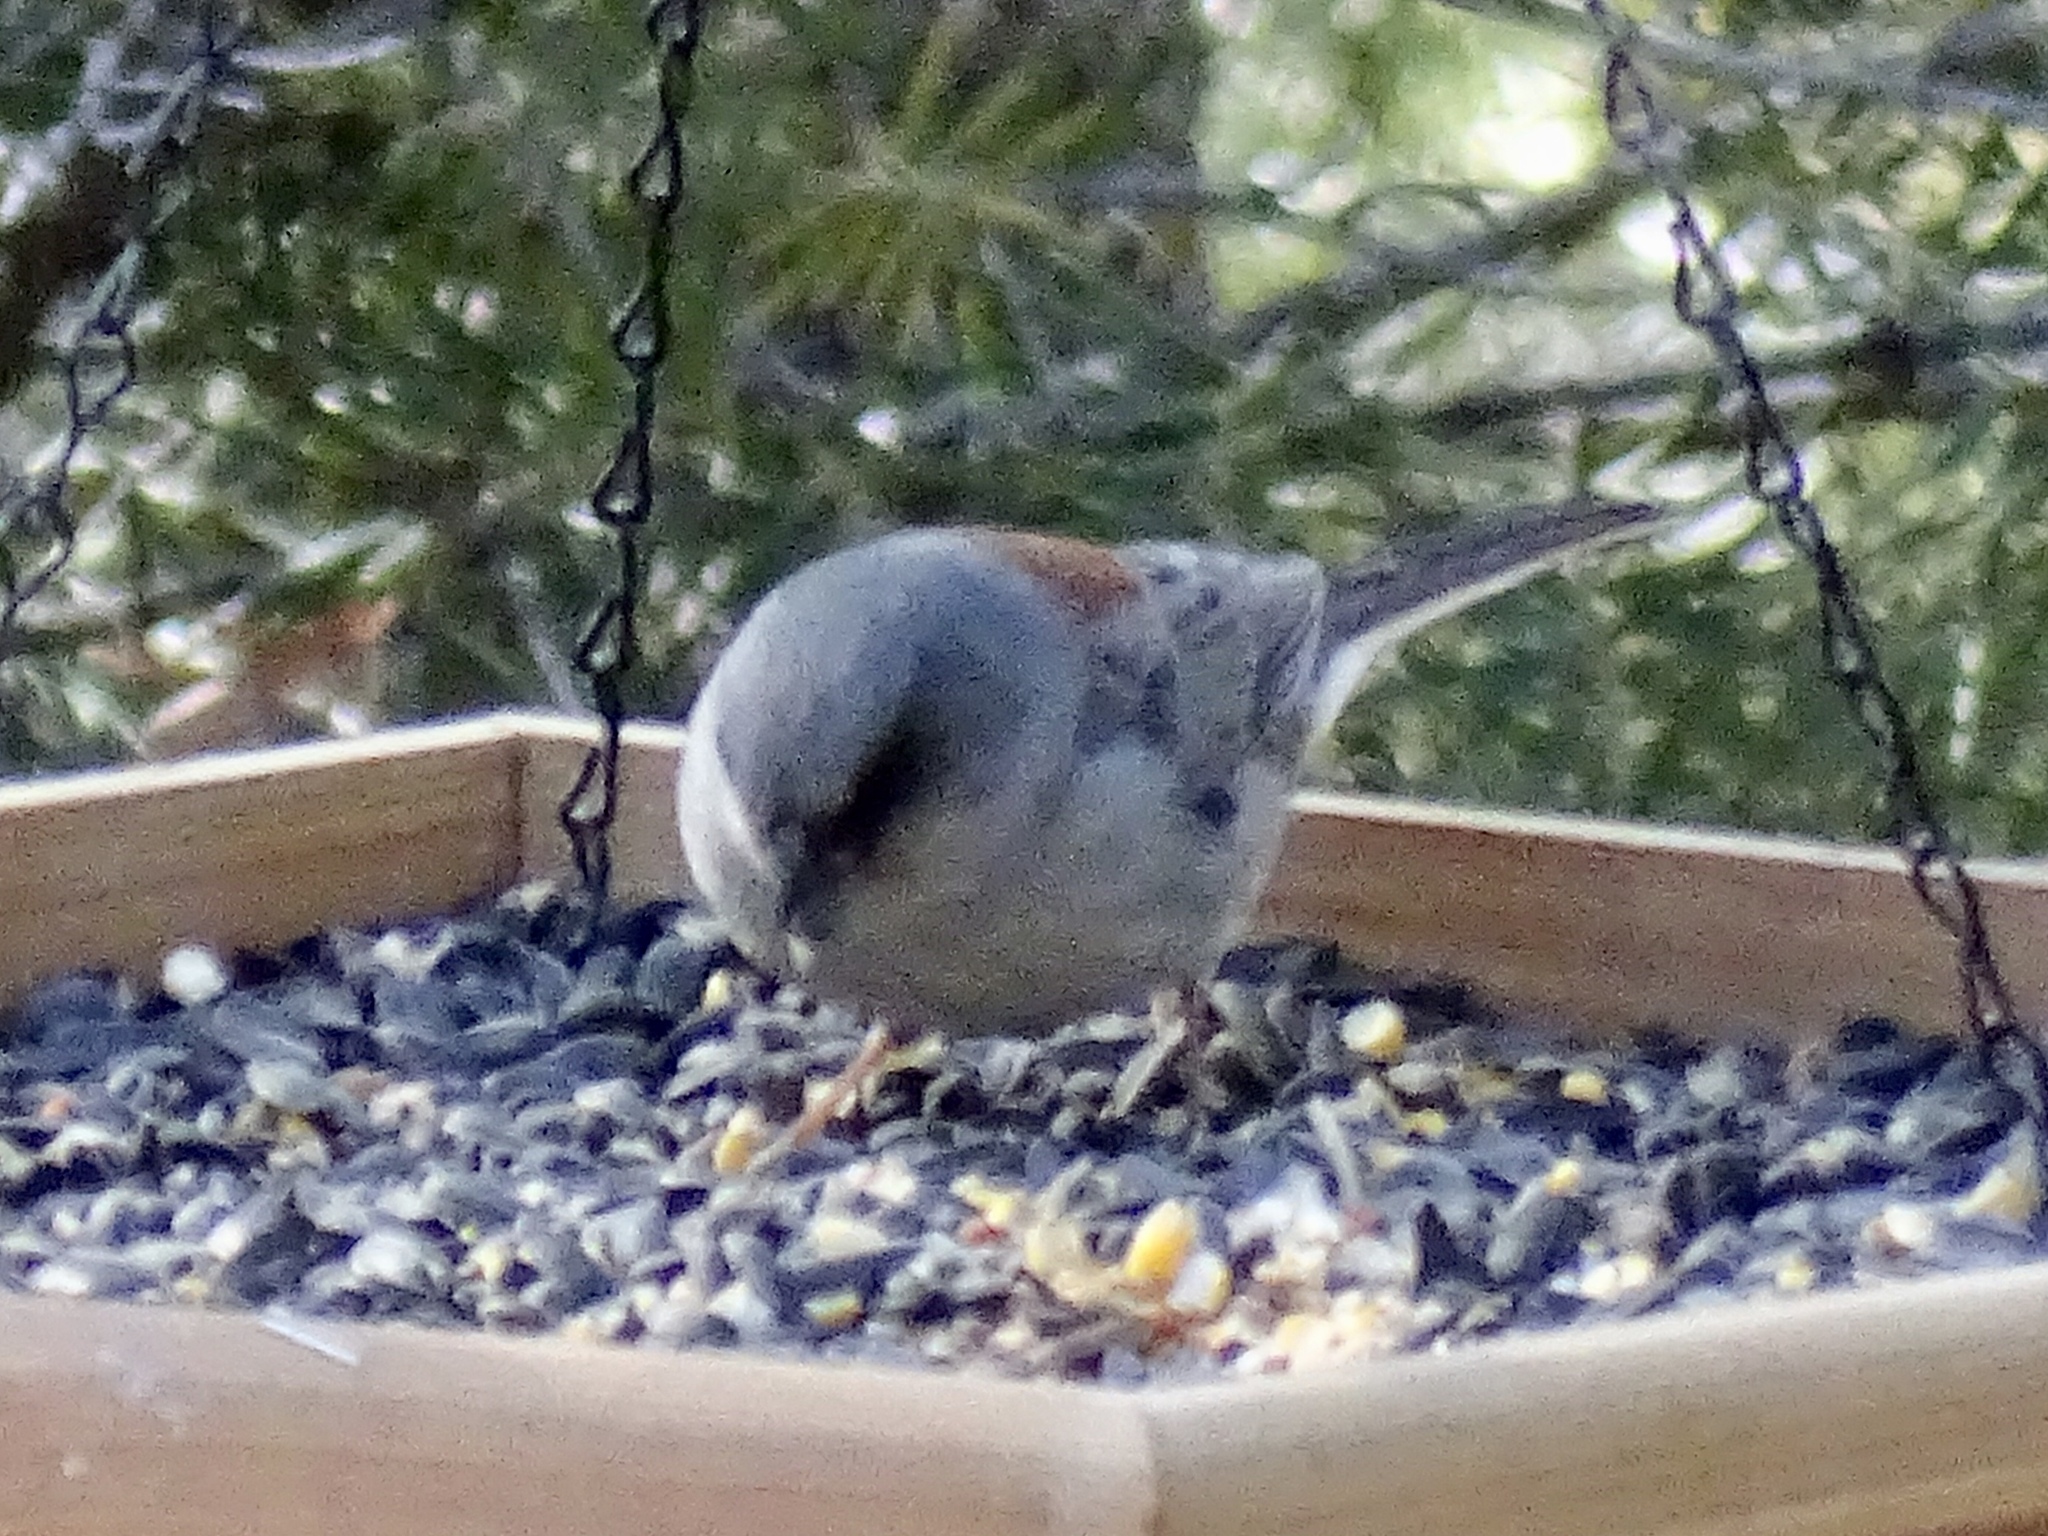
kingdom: Animalia
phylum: Chordata
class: Aves
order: Passeriformes
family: Passerellidae
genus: Junco
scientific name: Junco hyemalis
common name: Dark-eyed junco
